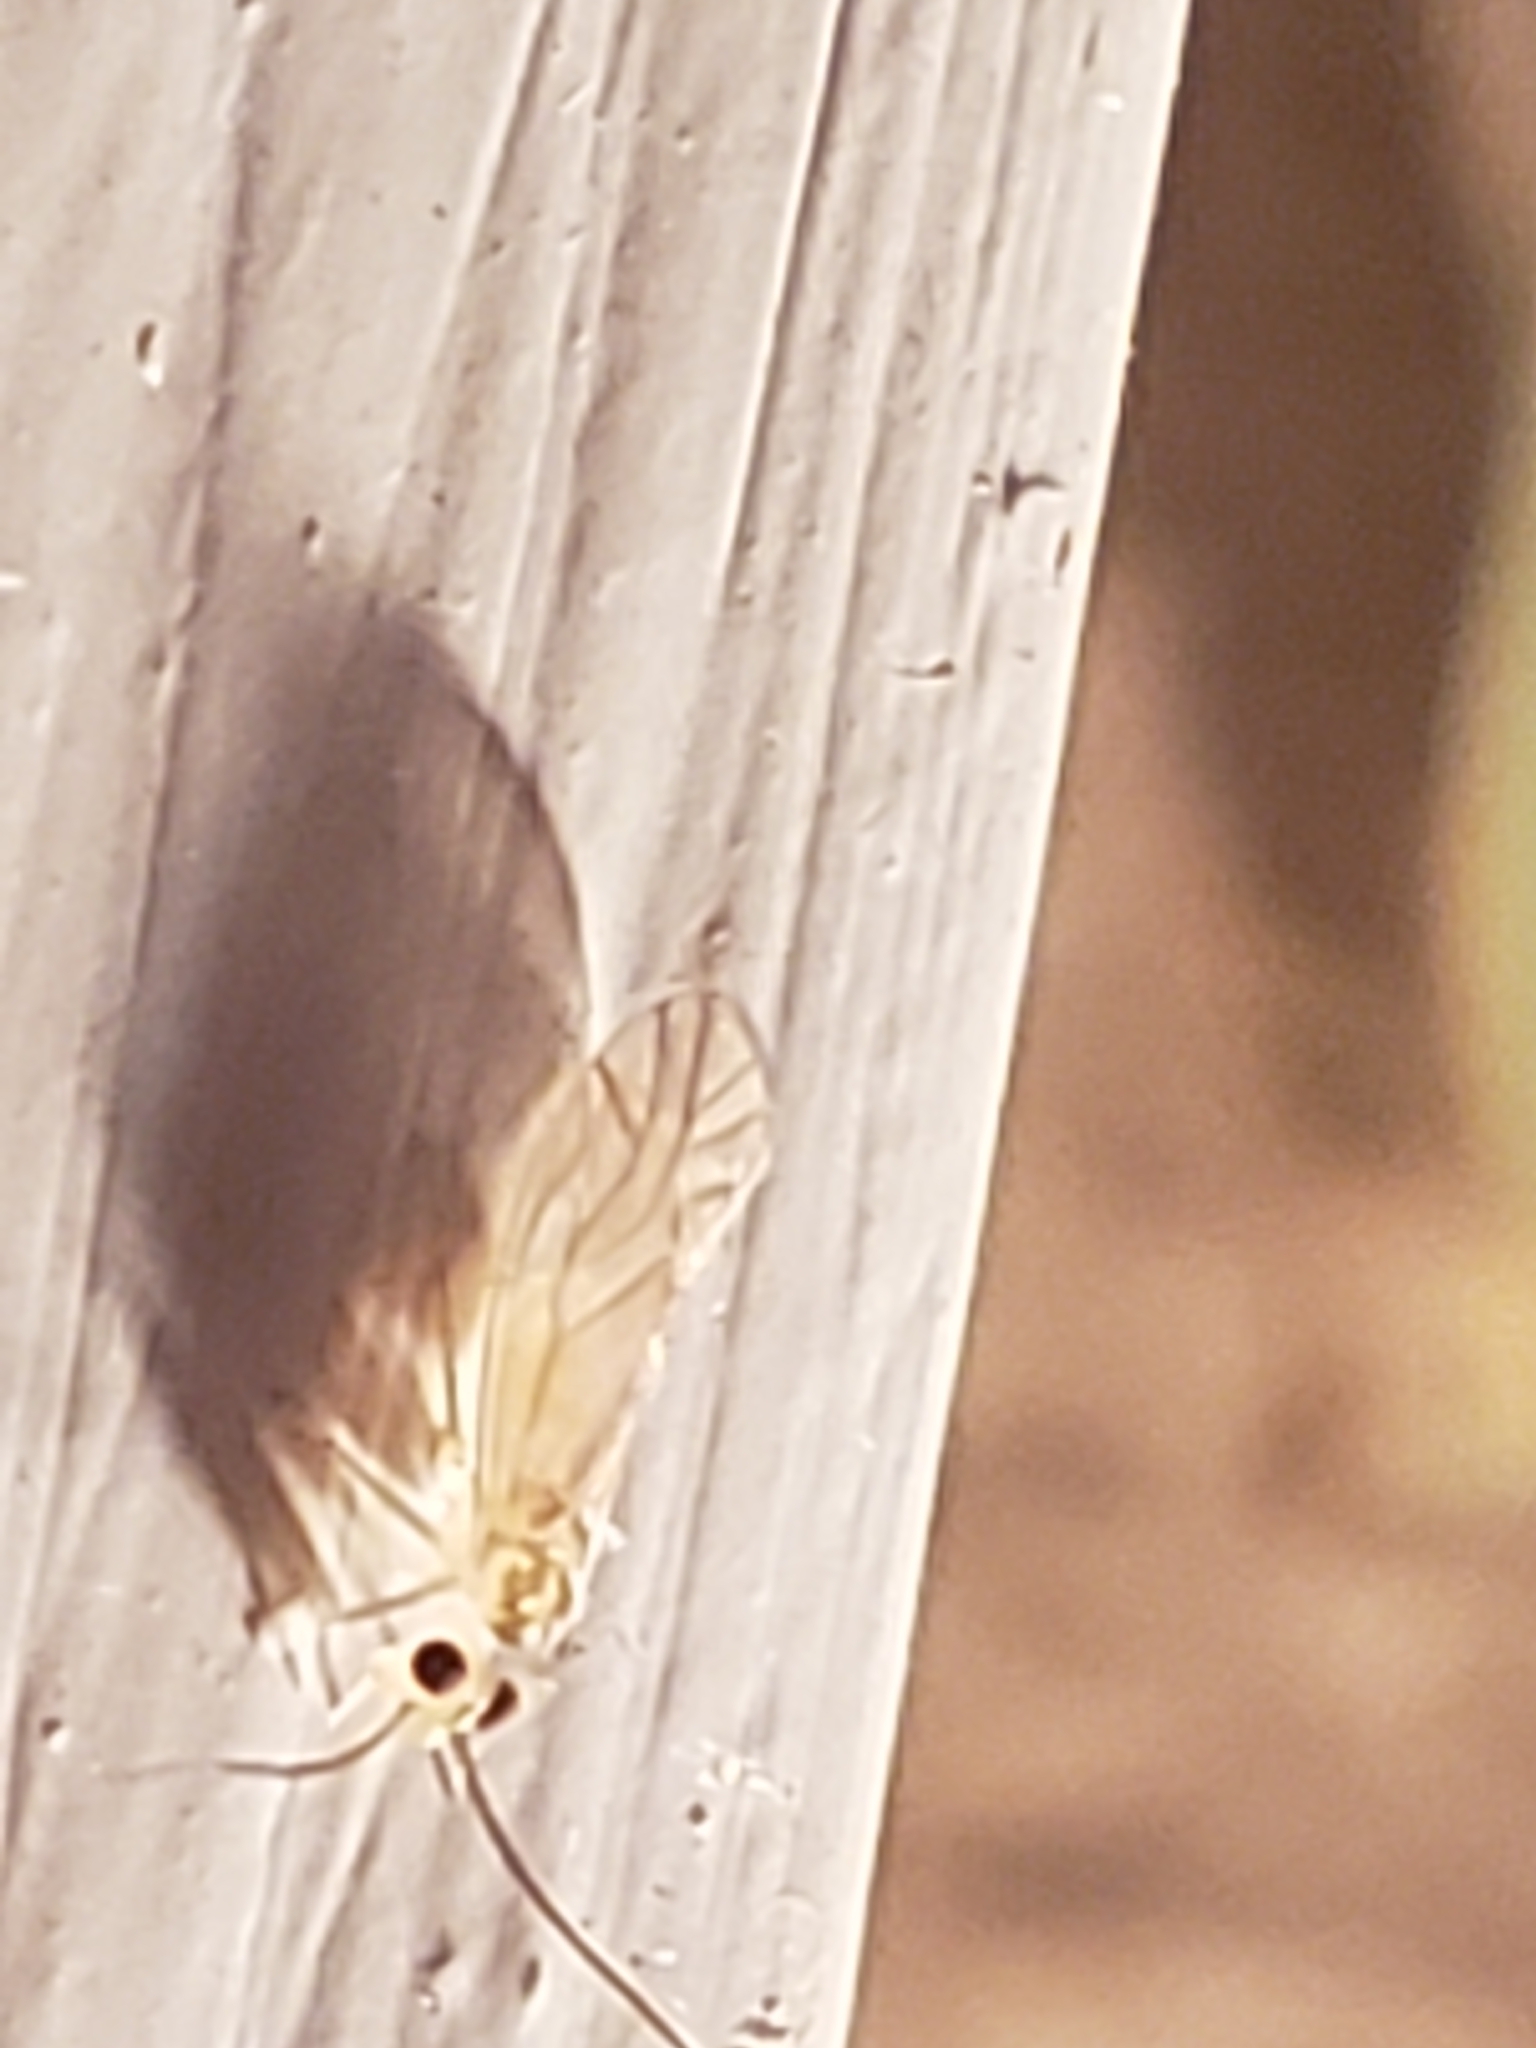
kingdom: Animalia
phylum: Arthropoda
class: Insecta
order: Psocodea
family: Caeciliusidae
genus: Valenzuela
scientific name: Valenzuela flavidus
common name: Yellow barklouse
